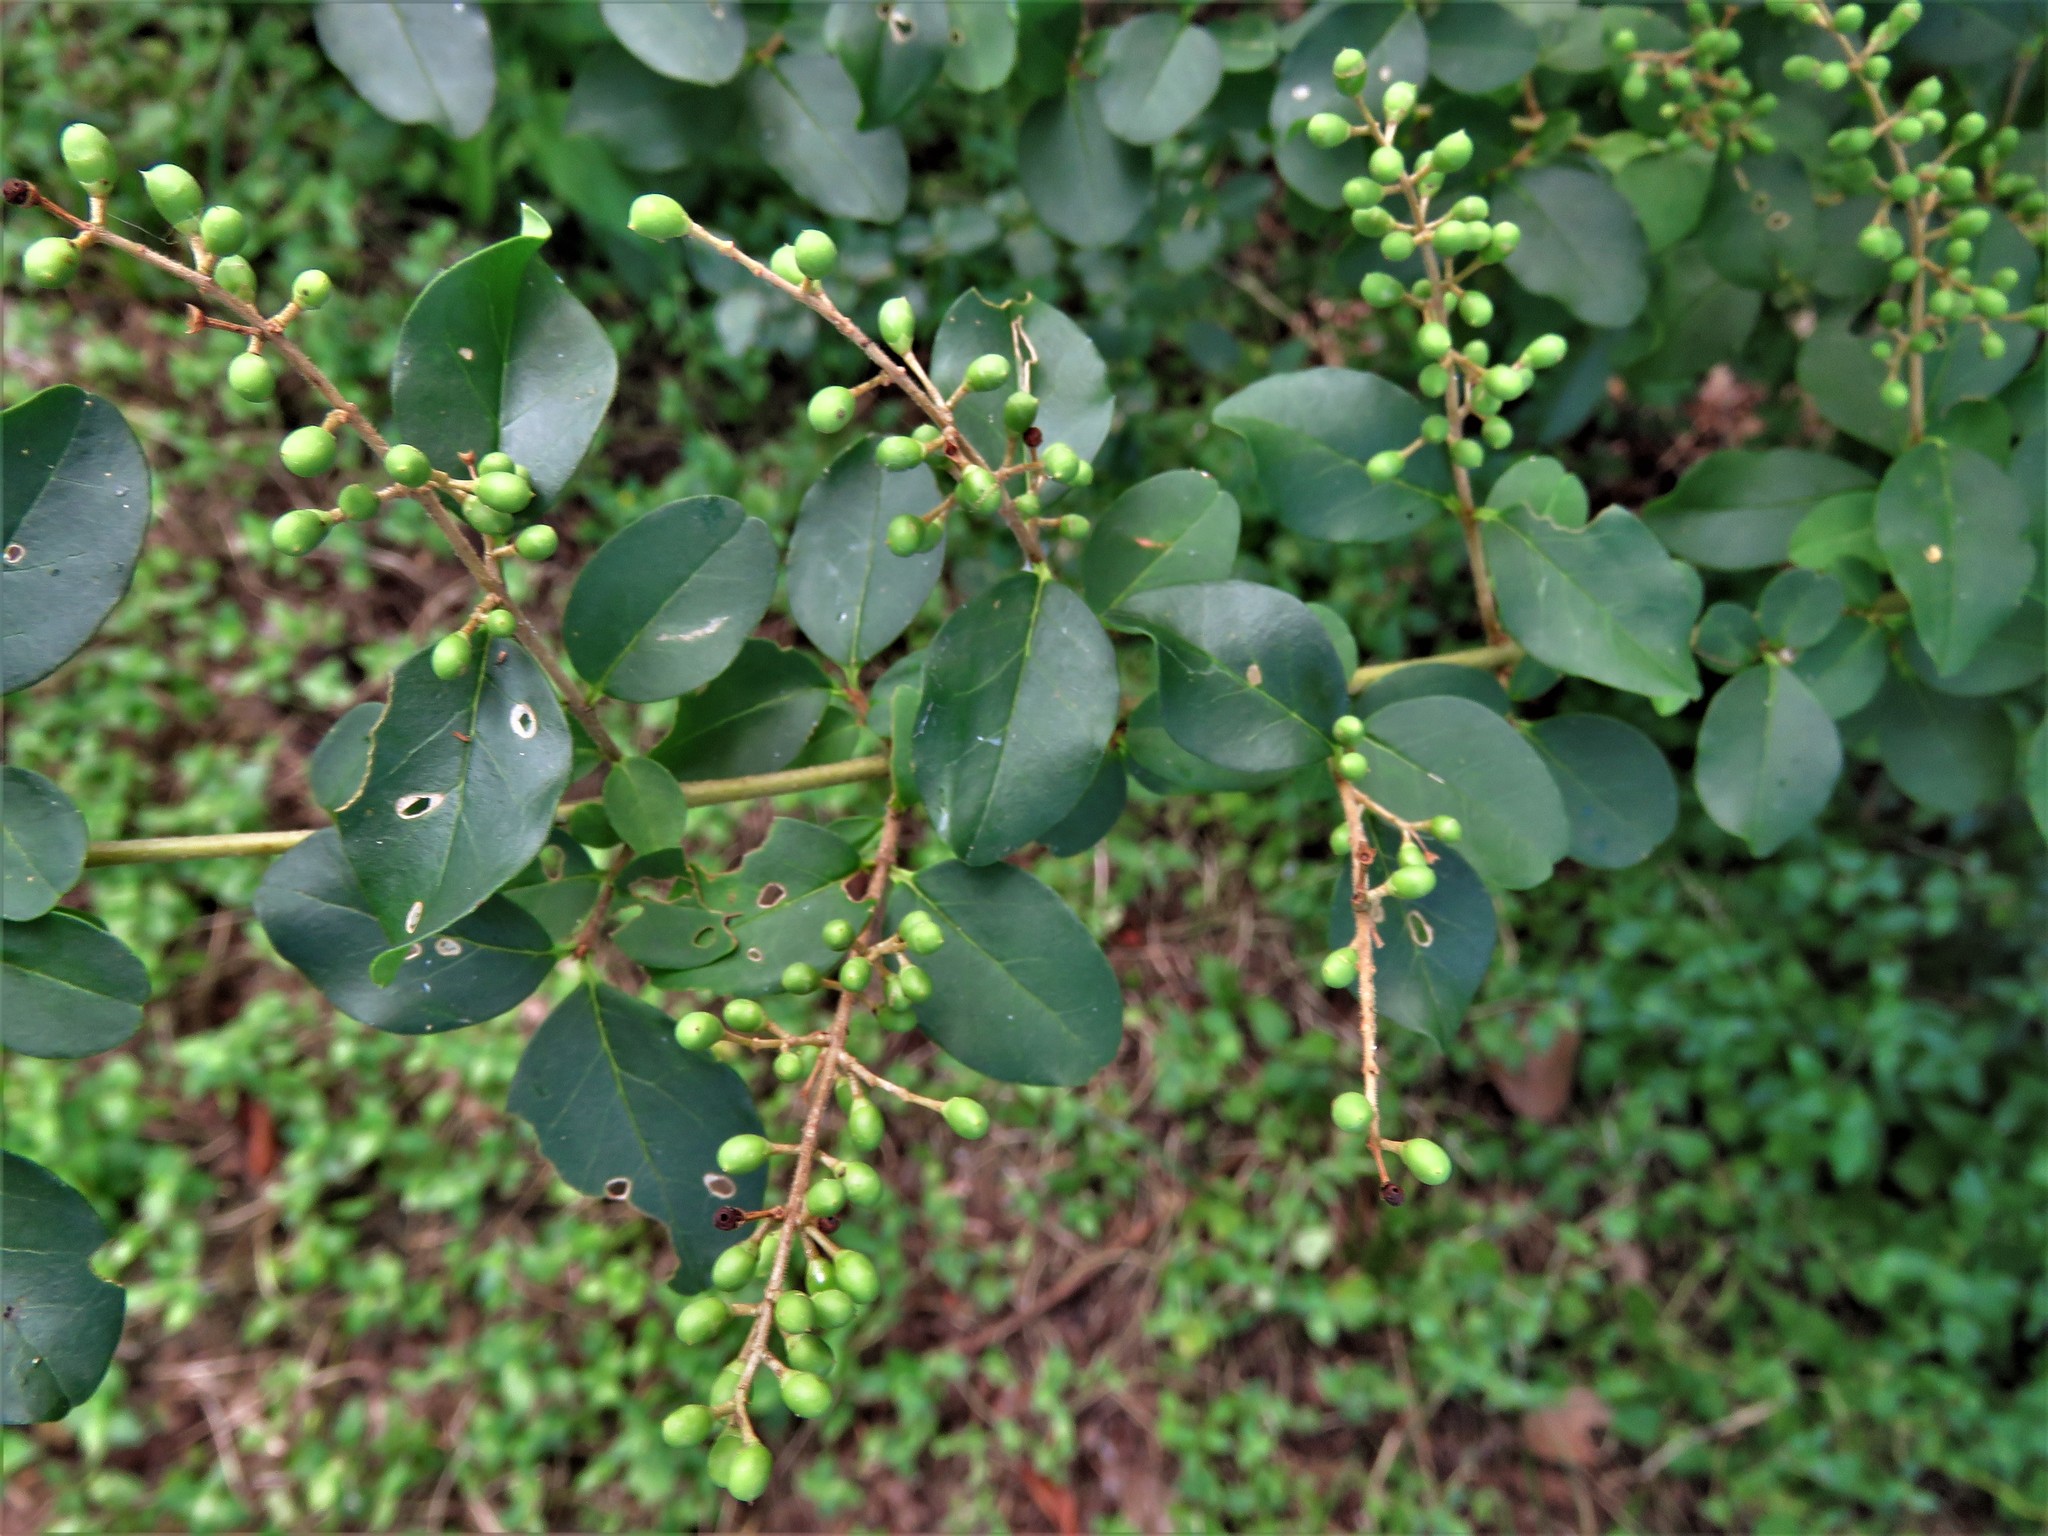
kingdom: Plantae
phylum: Tracheophyta
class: Magnoliopsida
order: Lamiales
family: Oleaceae
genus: Ligustrum
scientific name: Ligustrum sinense
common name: Chinese privet
